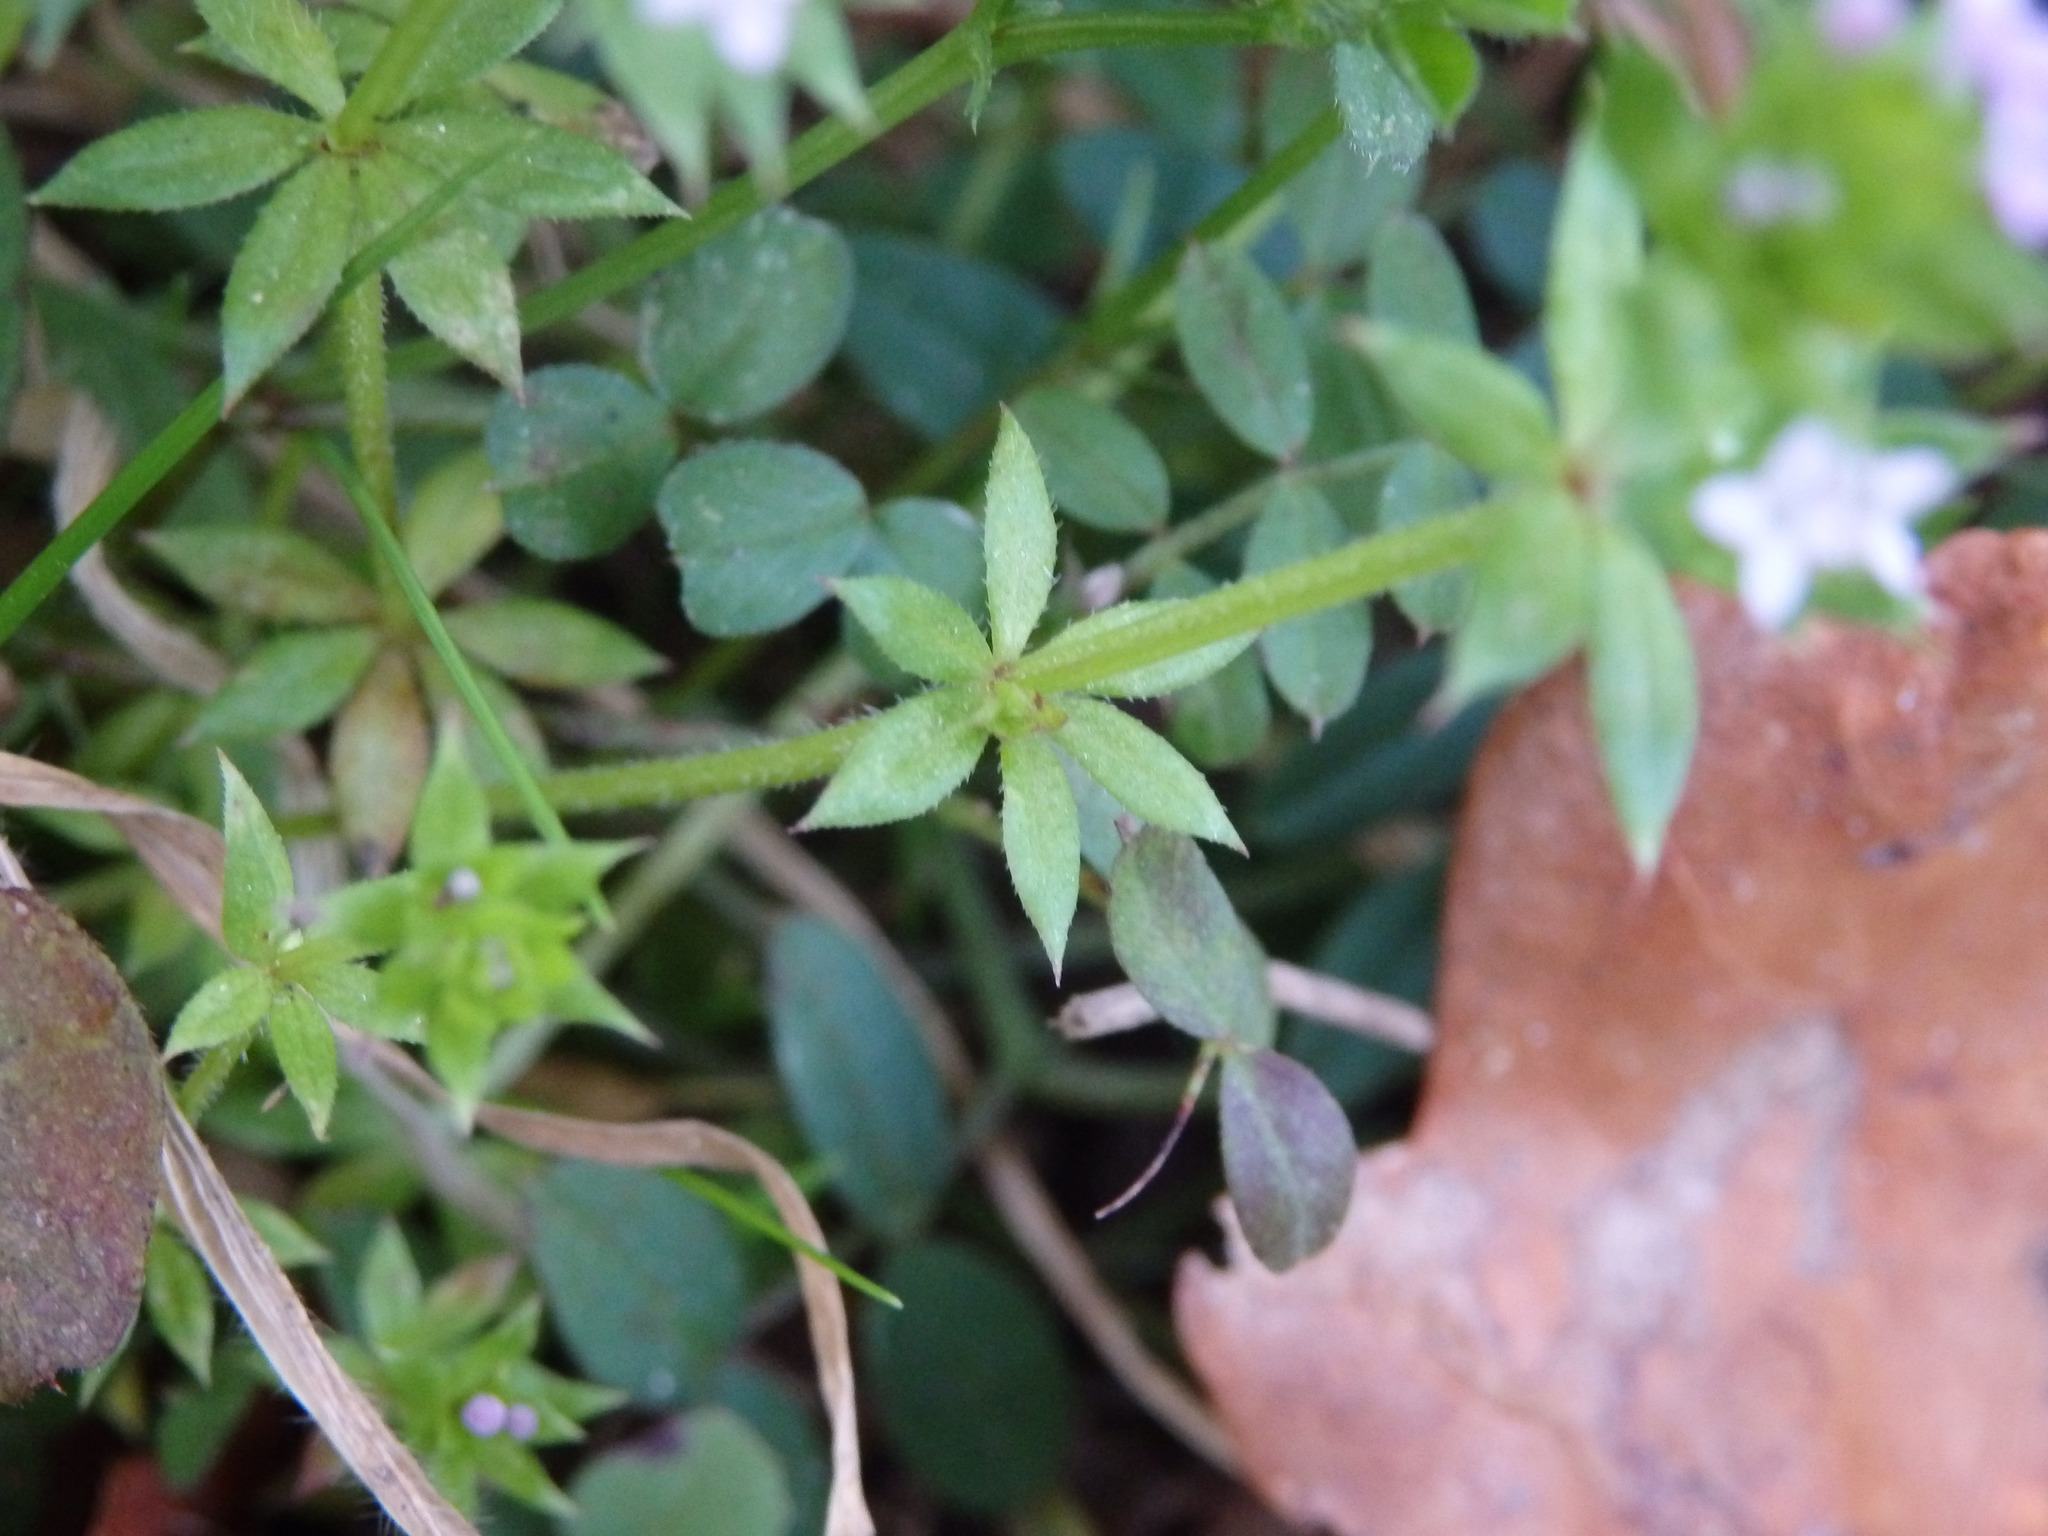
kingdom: Plantae
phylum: Tracheophyta
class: Magnoliopsida
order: Gentianales
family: Rubiaceae
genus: Sherardia
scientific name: Sherardia arvensis
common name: Field madder
